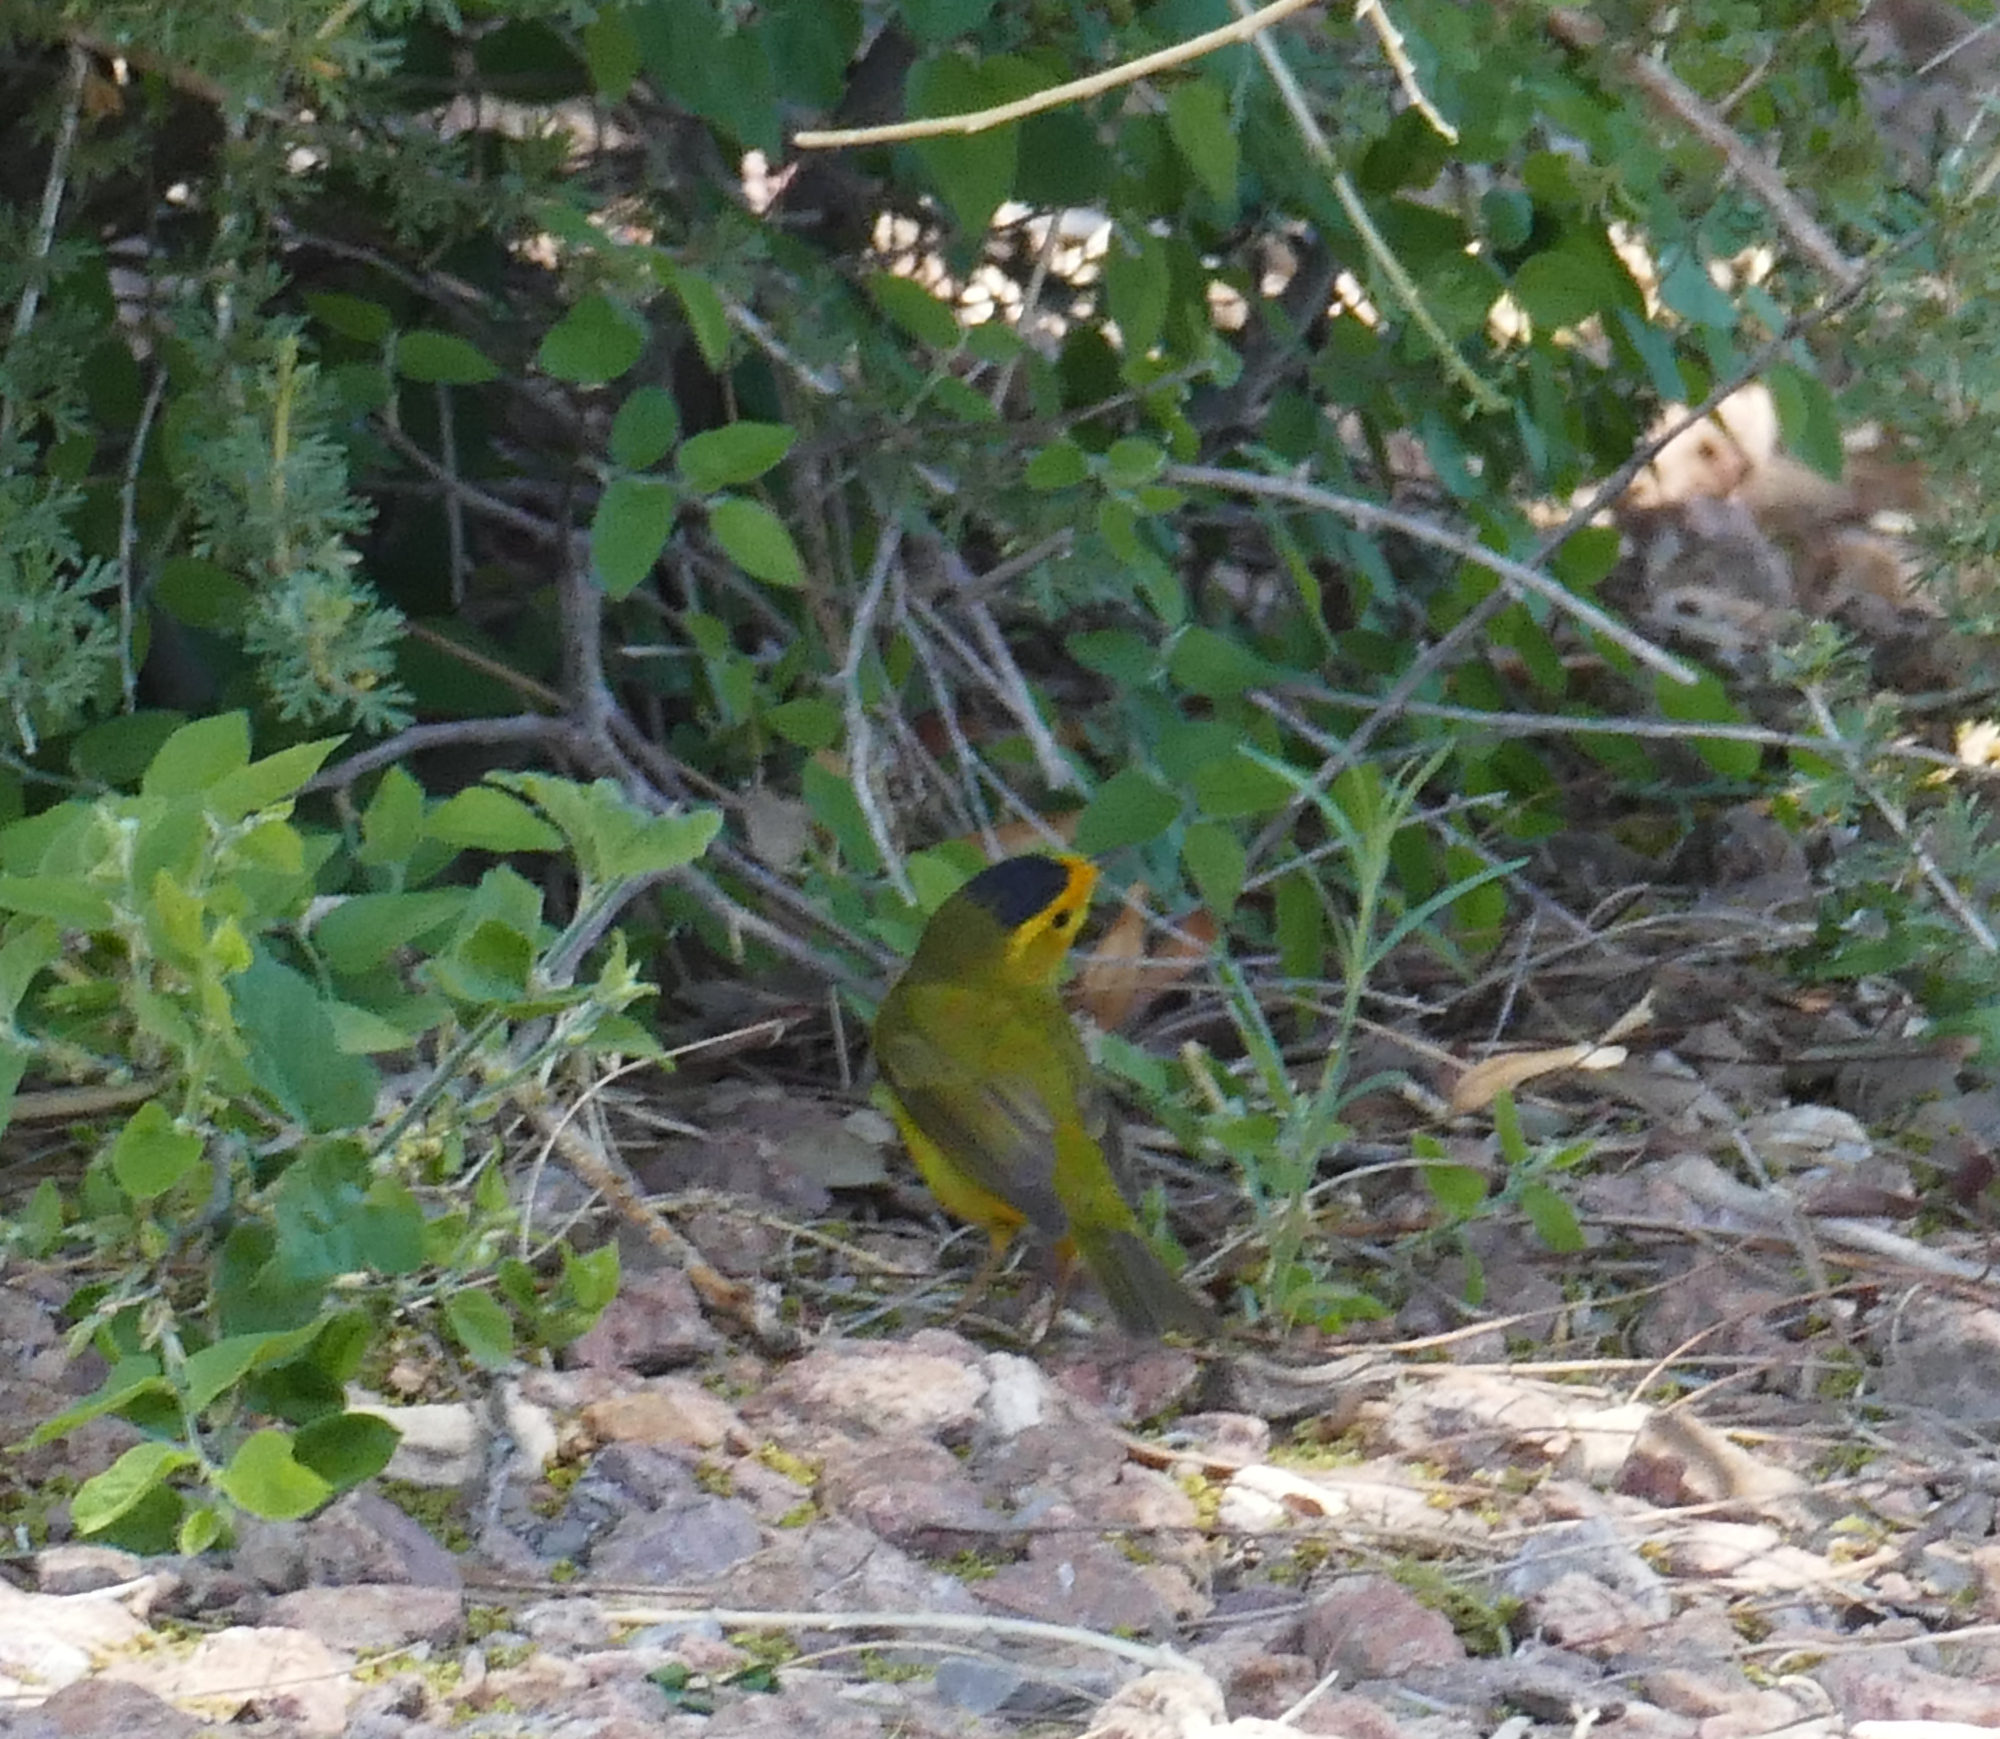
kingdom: Animalia
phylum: Chordata
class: Aves
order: Passeriformes
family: Parulidae
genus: Cardellina
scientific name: Cardellina pusilla
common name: Wilson's warbler
